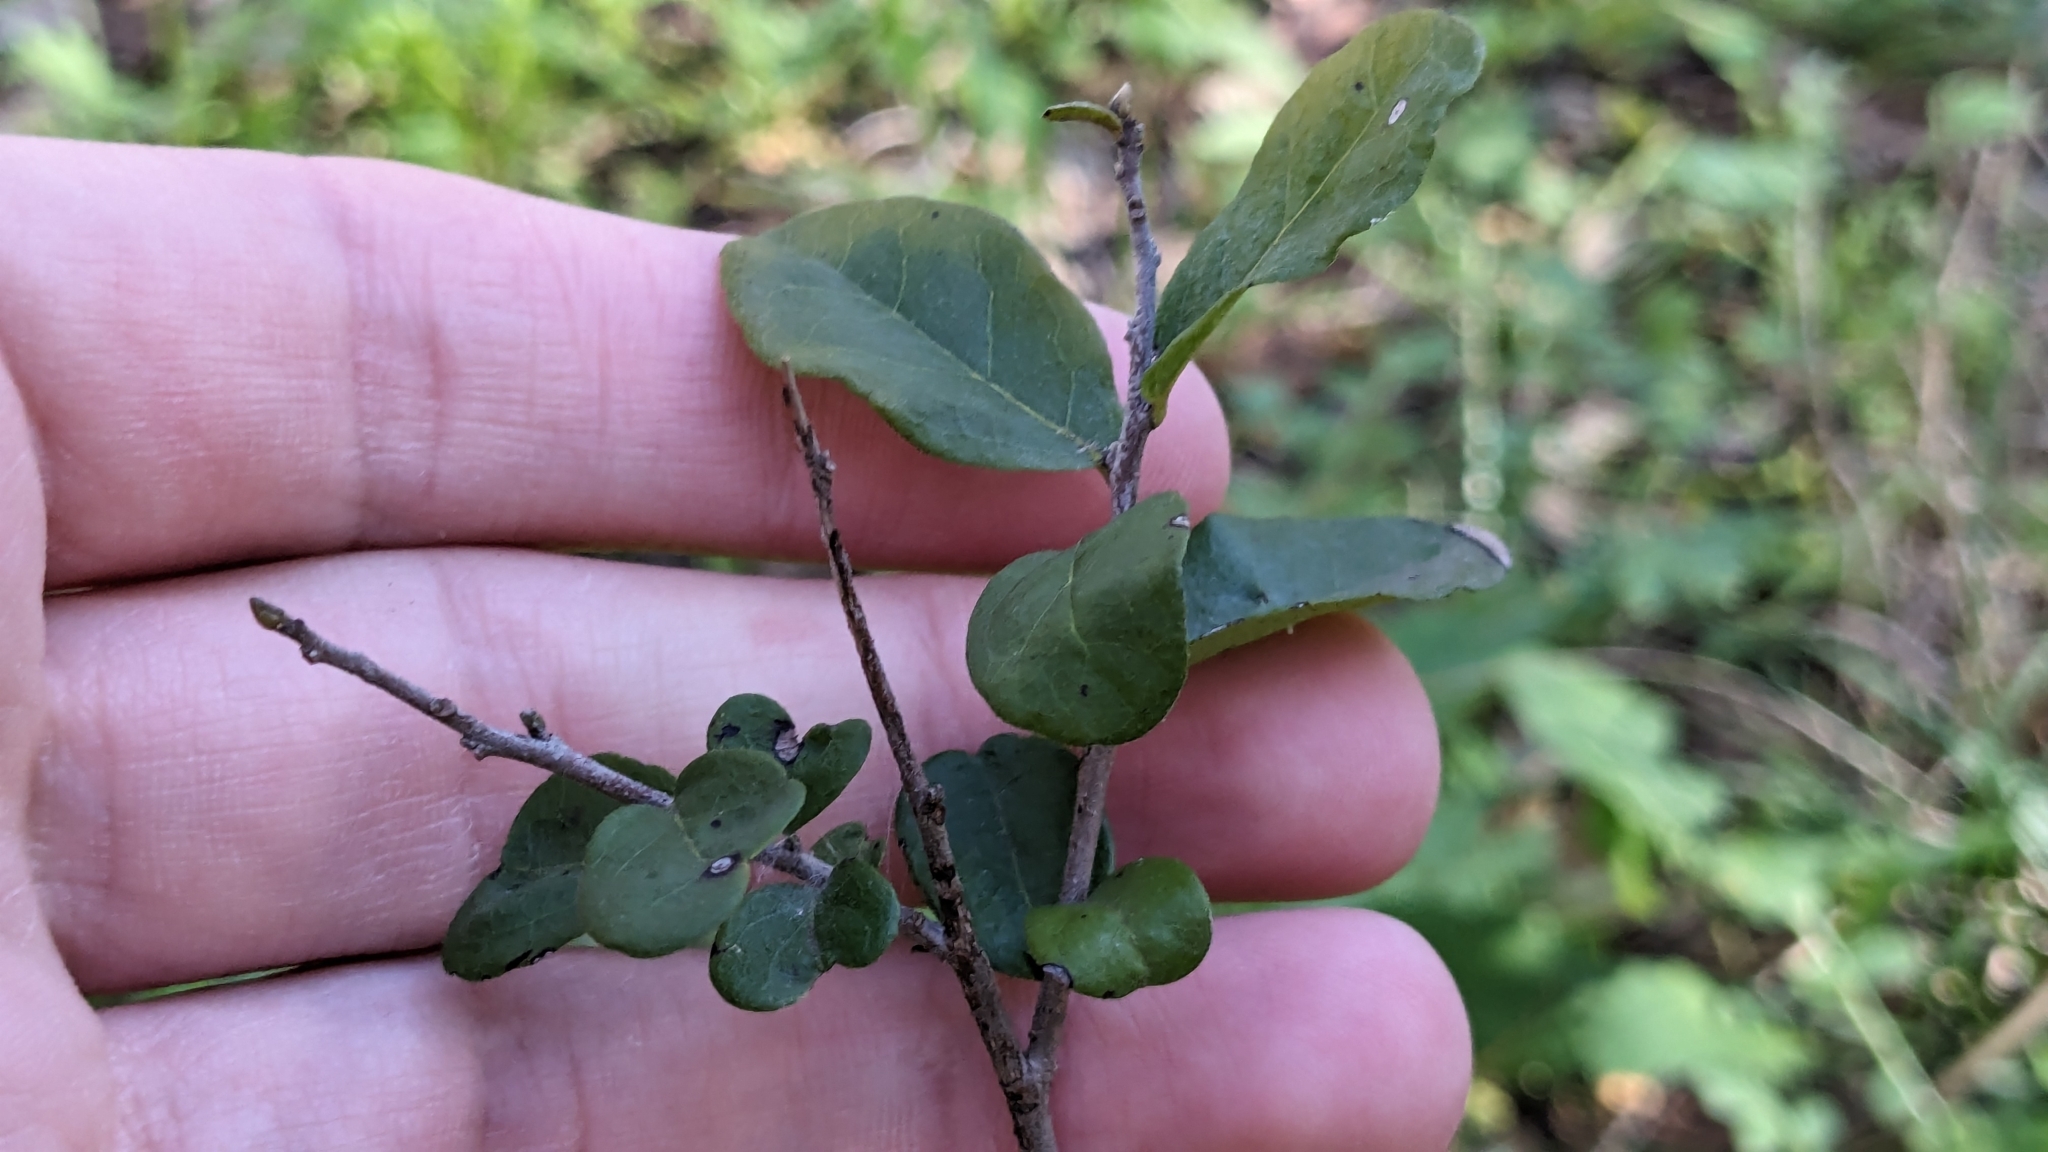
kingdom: Plantae
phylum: Tracheophyta
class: Magnoliopsida
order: Ericales
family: Ebenaceae
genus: Diospyros
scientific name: Diospyros texana
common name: Texas persimmon
